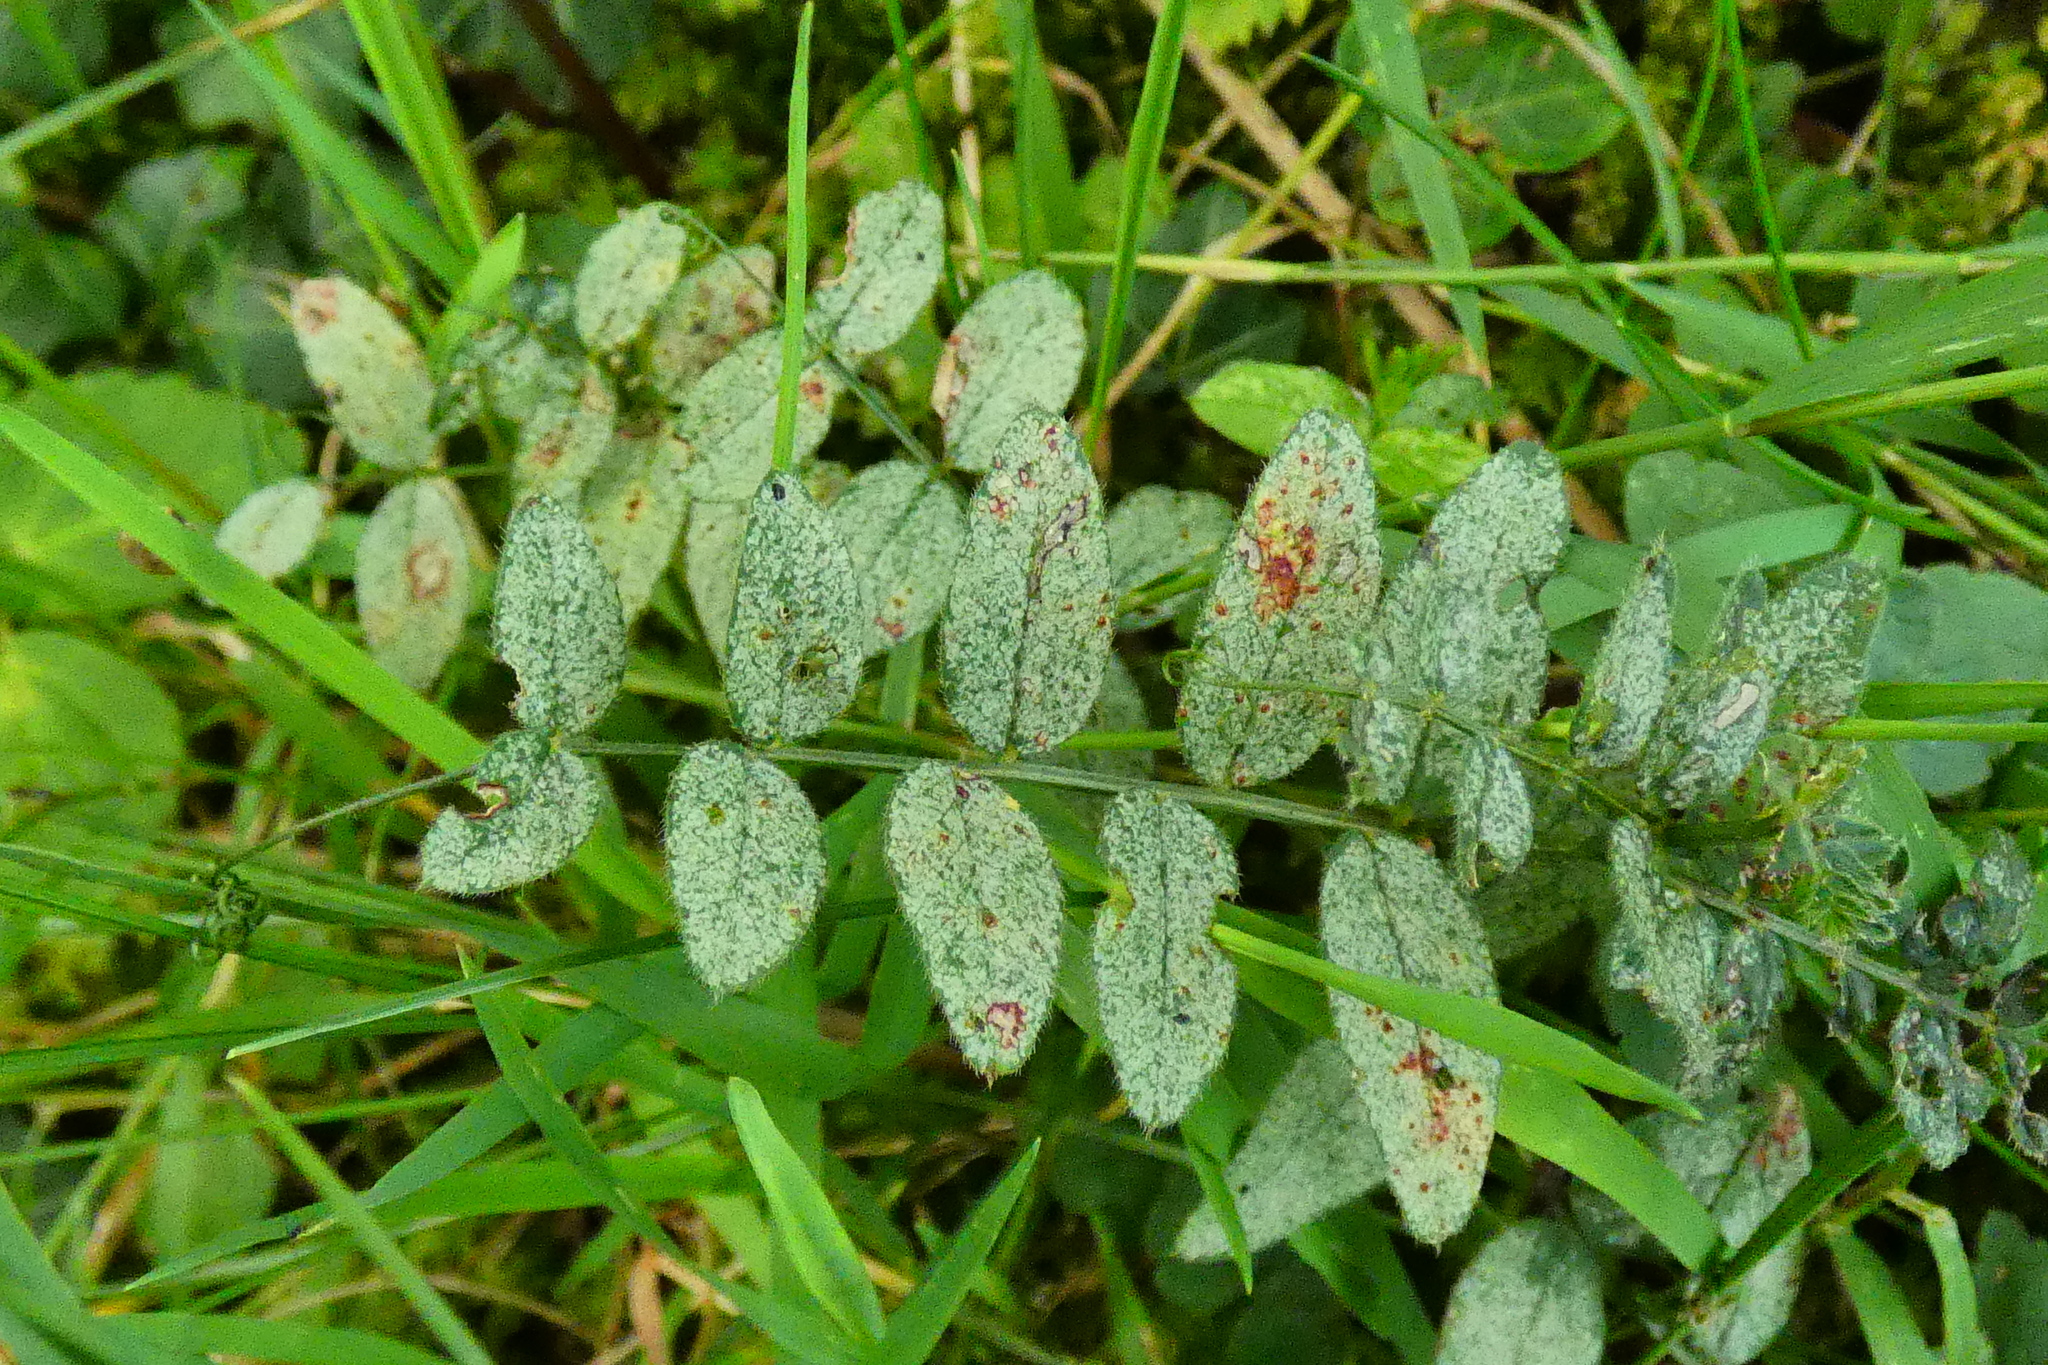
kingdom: Plantae
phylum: Tracheophyta
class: Magnoliopsida
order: Fabales
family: Fabaceae
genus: Vicia
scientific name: Vicia sepium
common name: Bush vetch
